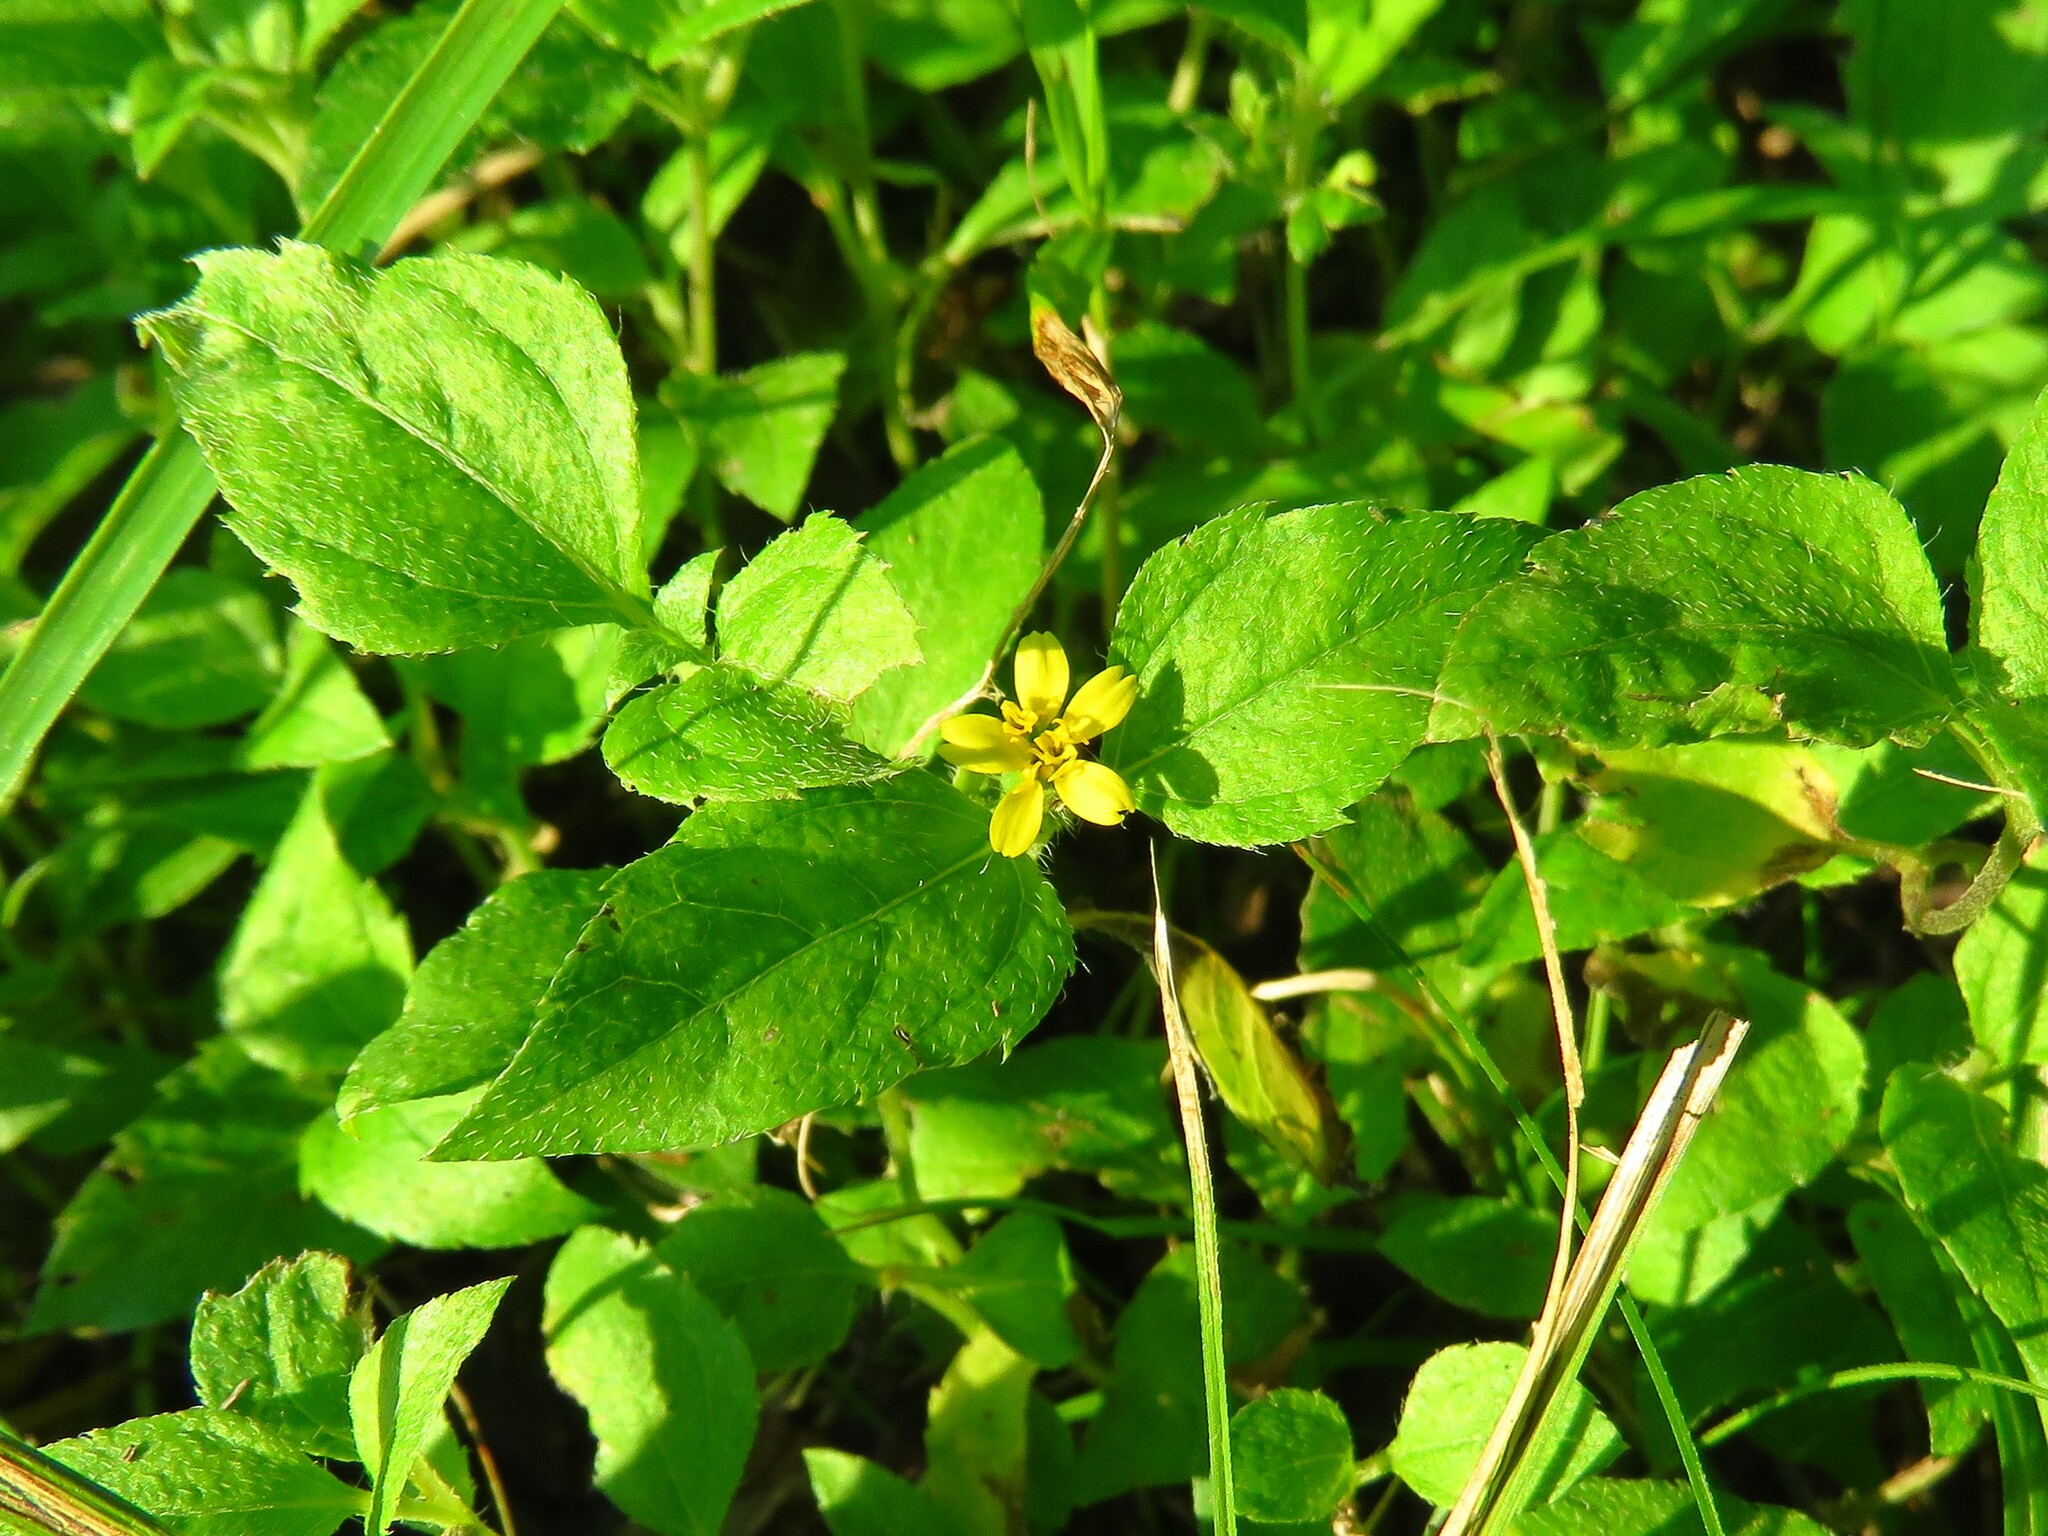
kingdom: Plantae
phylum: Tracheophyta
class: Magnoliopsida
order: Asterales
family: Asteraceae
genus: Calyptocarpus
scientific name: Calyptocarpus vialis
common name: Straggler daisy
